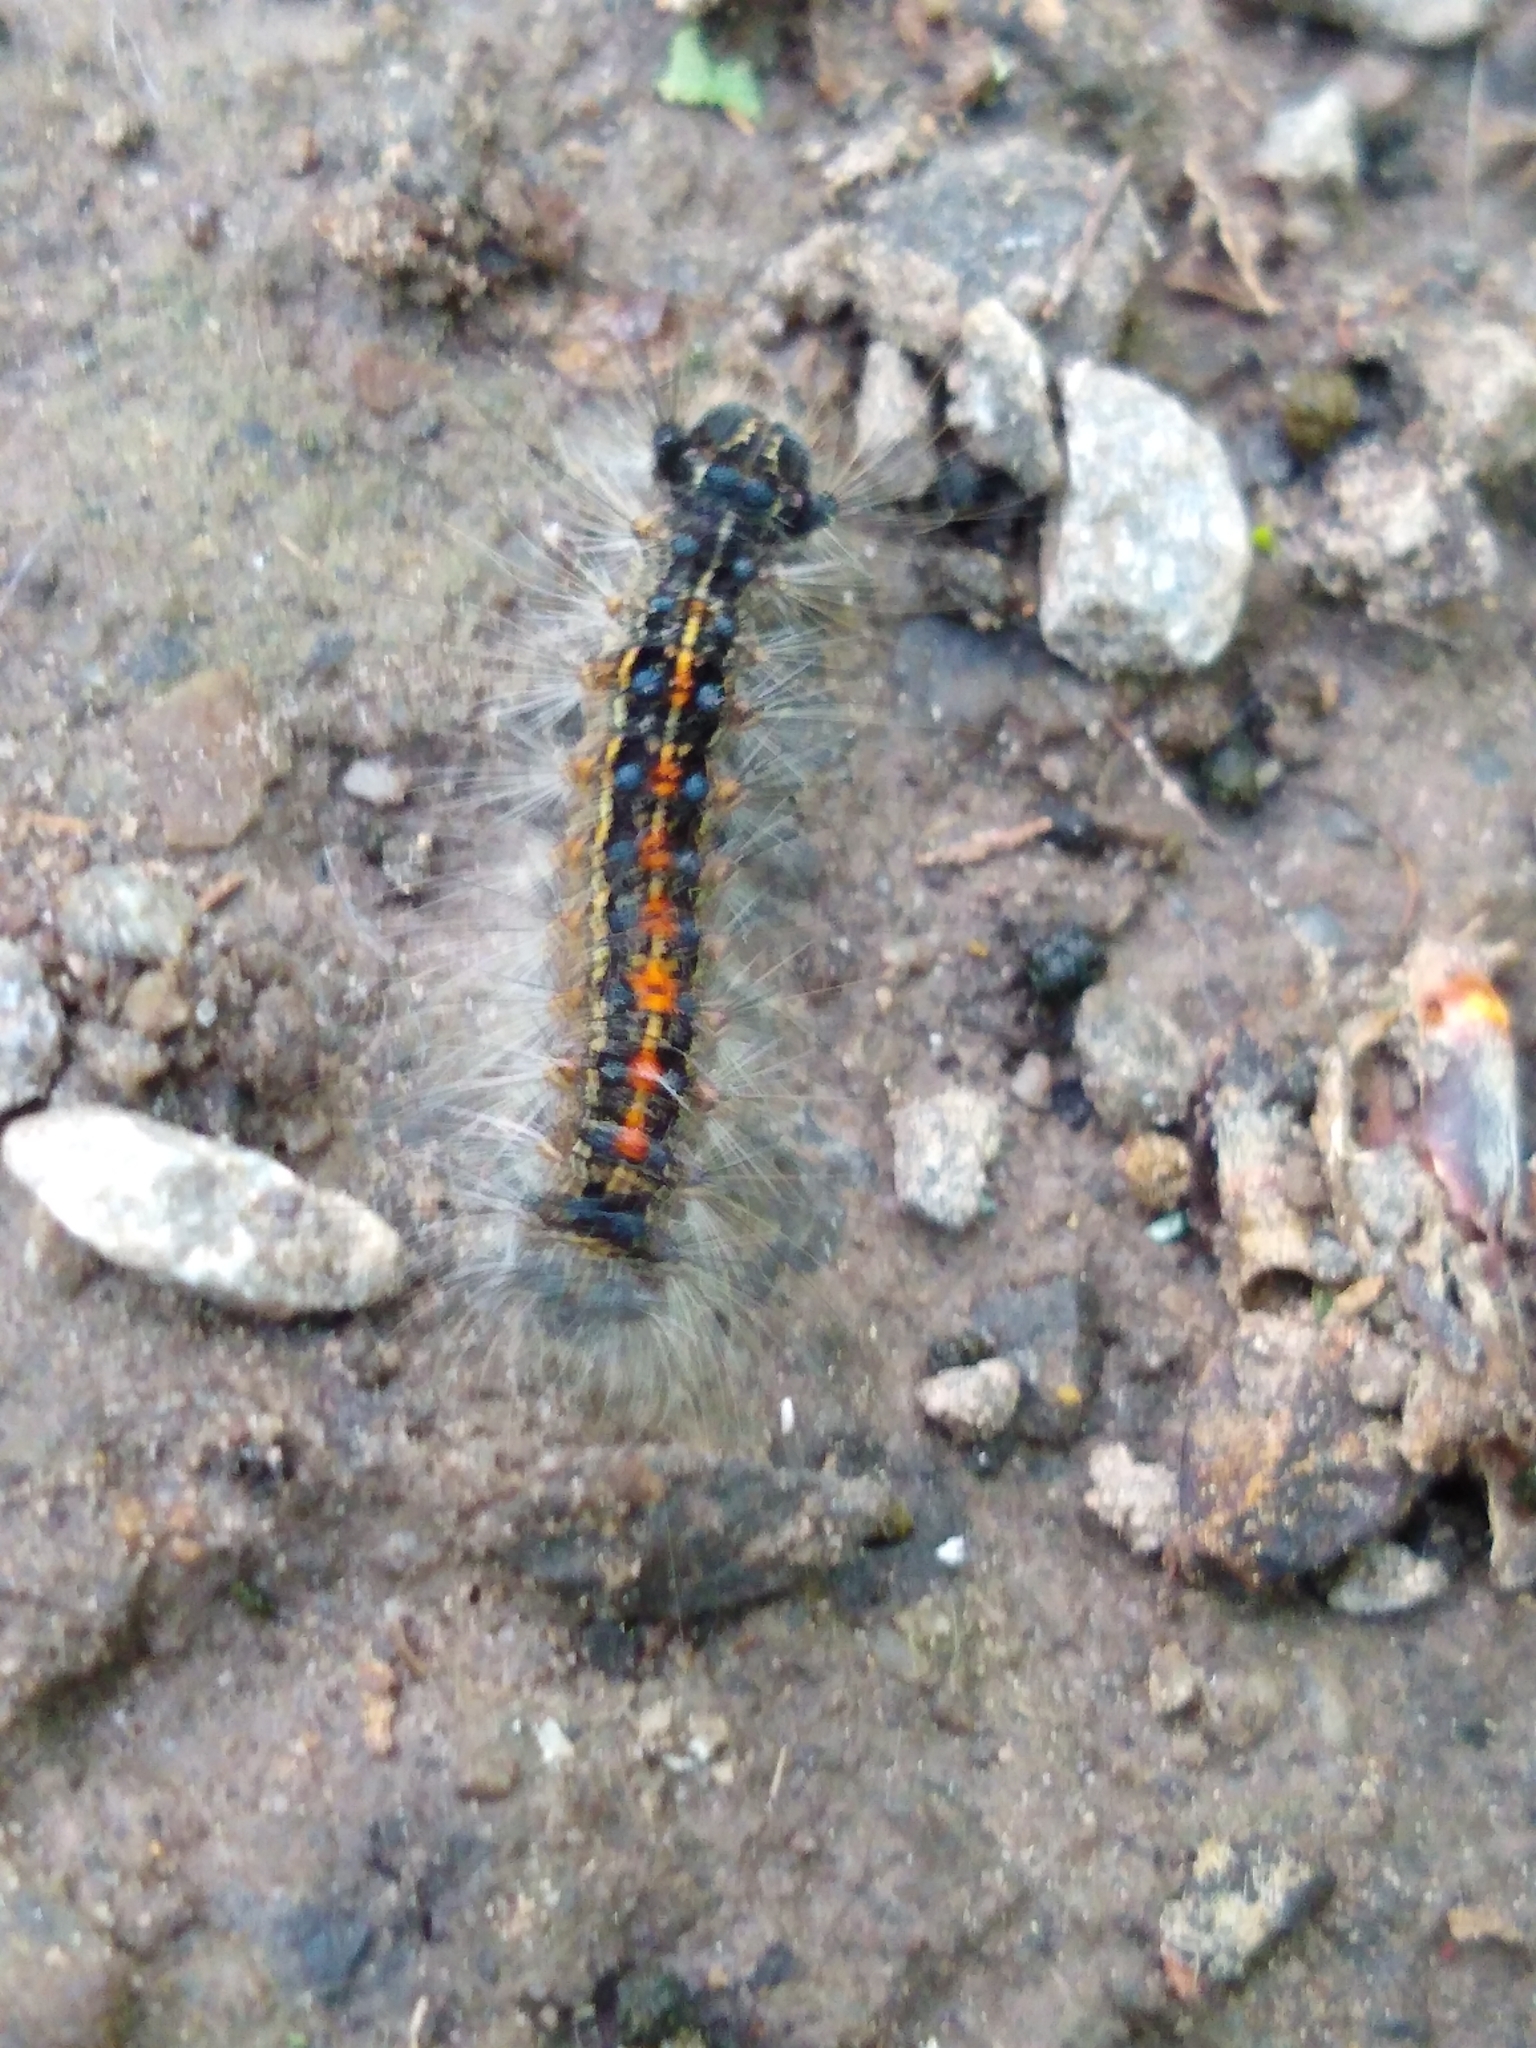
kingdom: Animalia
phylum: Arthropoda
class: Insecta
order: Lepidoptera
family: Erebidae
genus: Lymantria
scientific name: Lymantria dispar
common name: Gypsy moth
